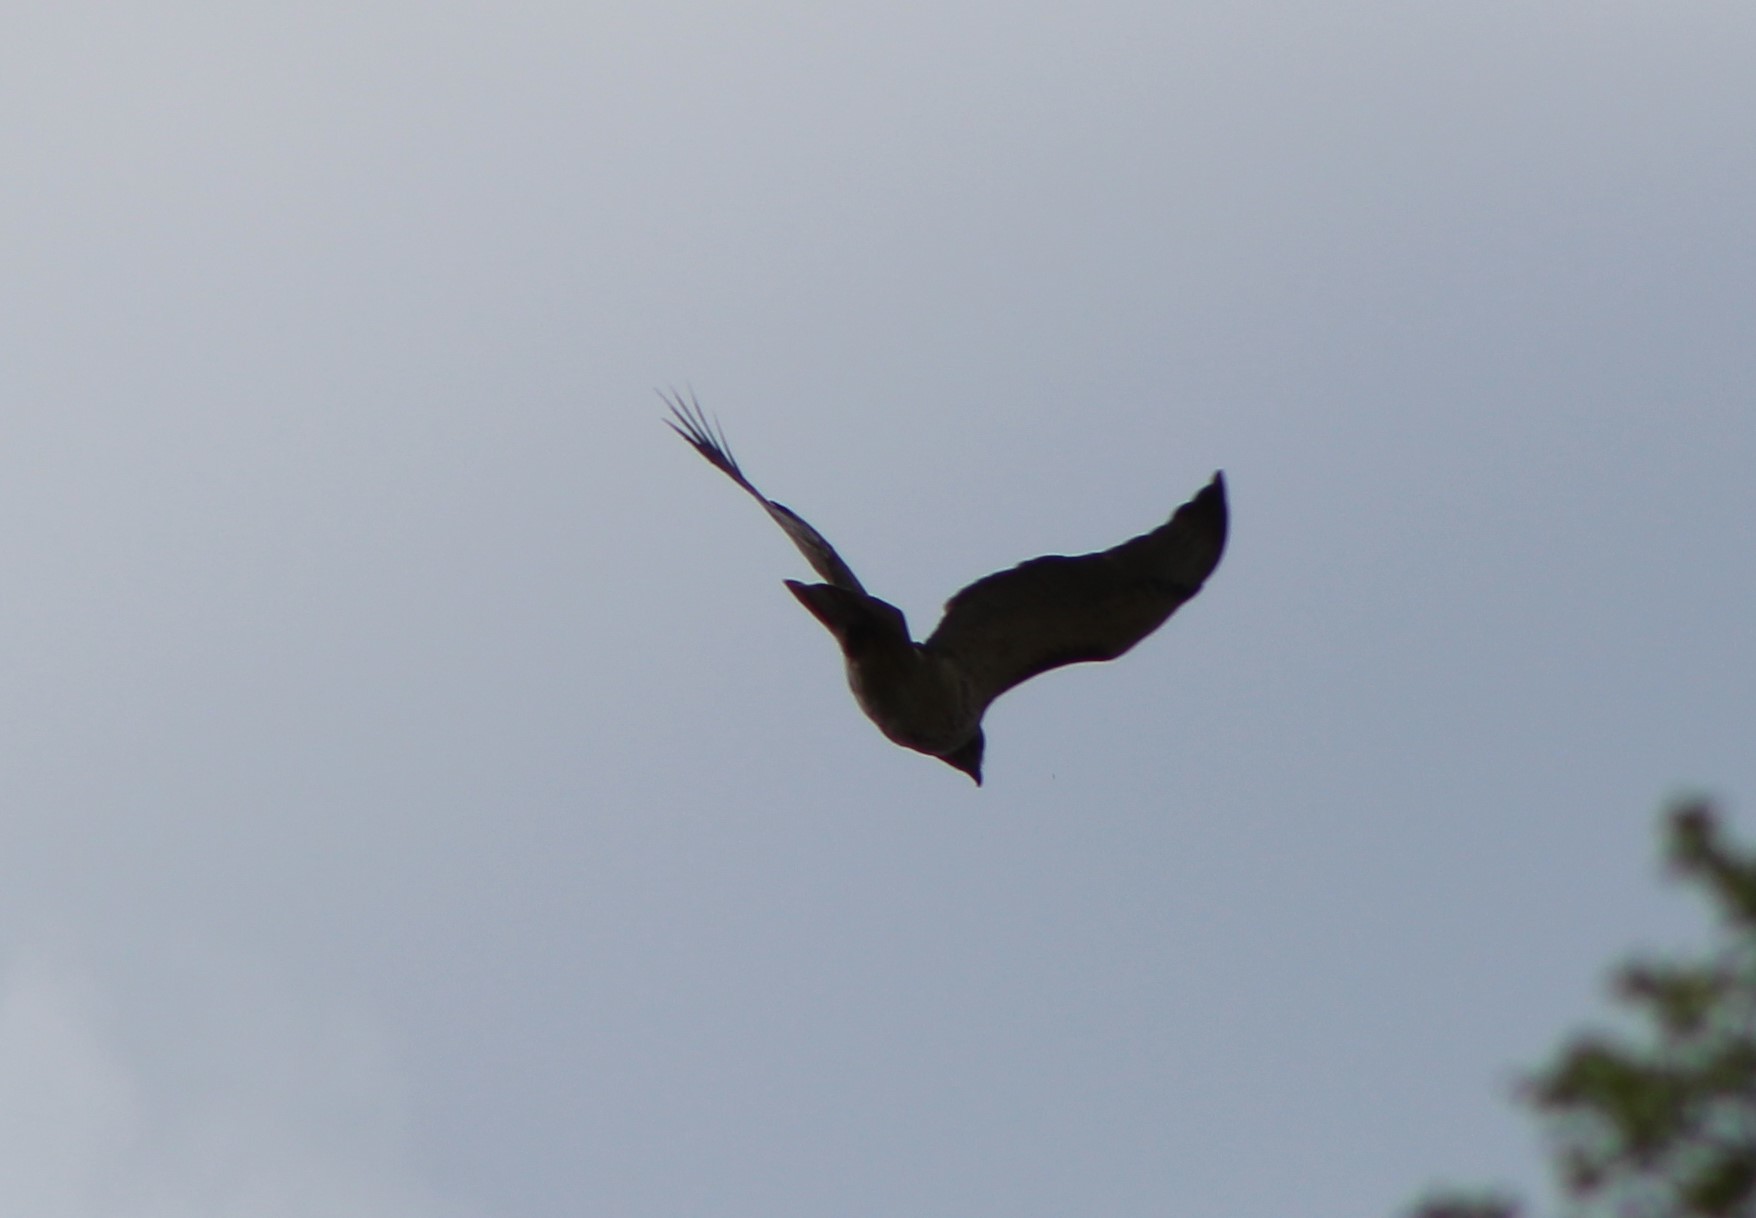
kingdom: Animalia
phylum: Chordata
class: Aves
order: Passeriformes
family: Corvidae
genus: Corvus
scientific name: Corvus brachyrhynchos
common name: American crow
